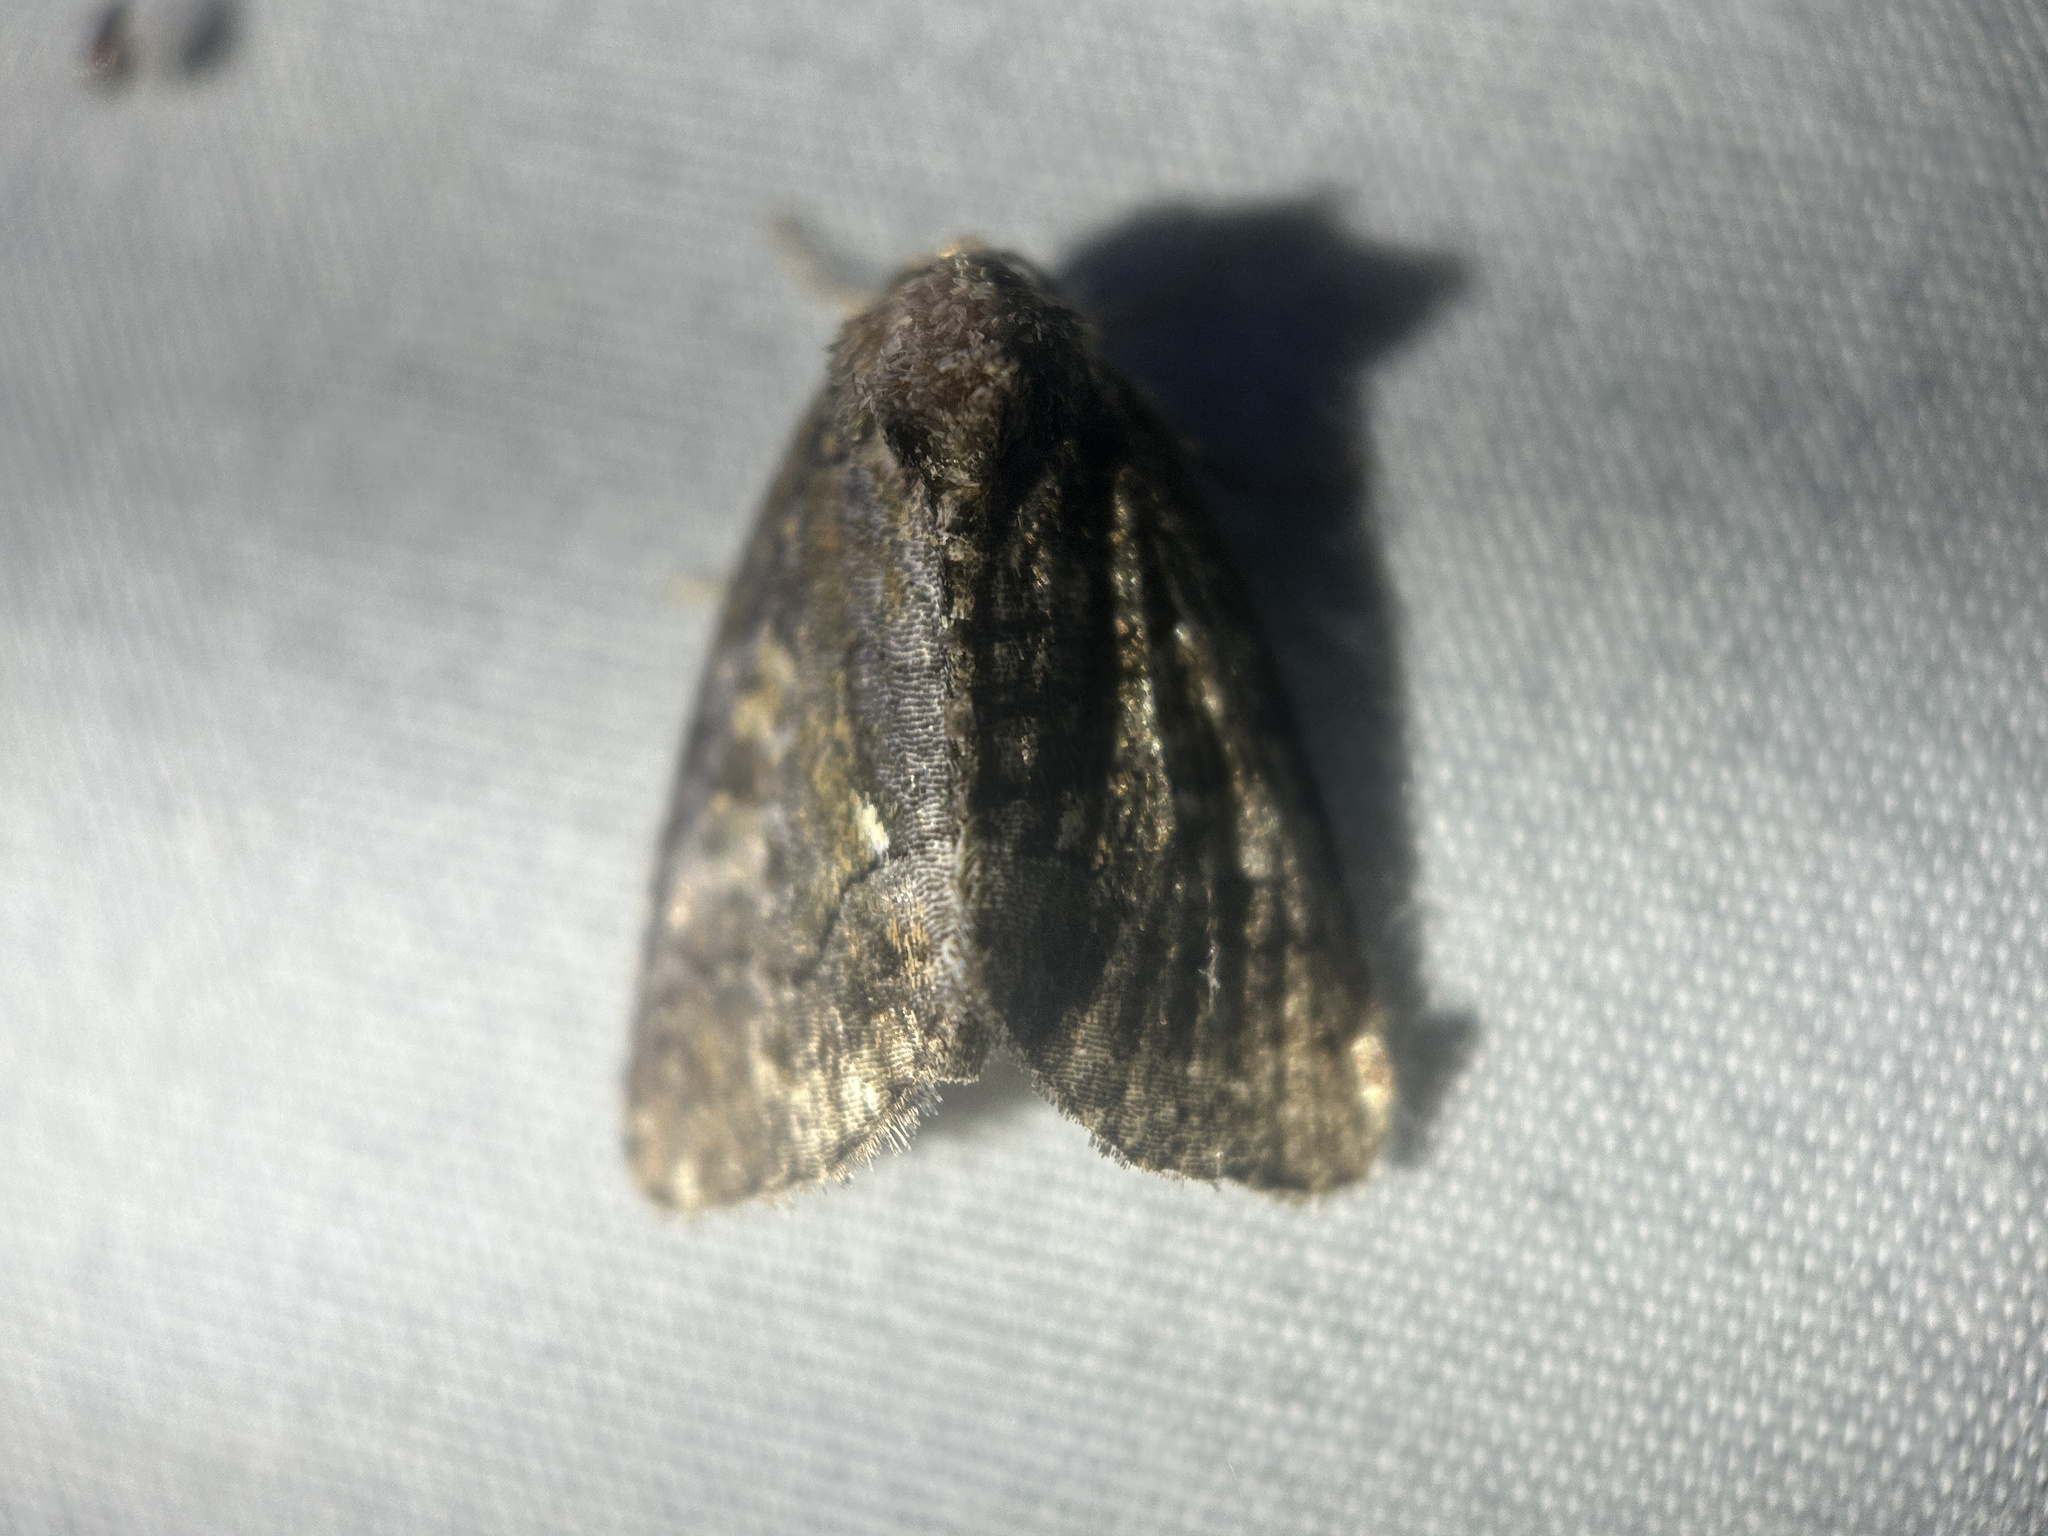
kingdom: Animalia
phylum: Arthropoda
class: Insecta
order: Lepidoptera
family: Noctuidae
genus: Chytonix
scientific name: Chytonix palliatricula
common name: Cloaked marvel
